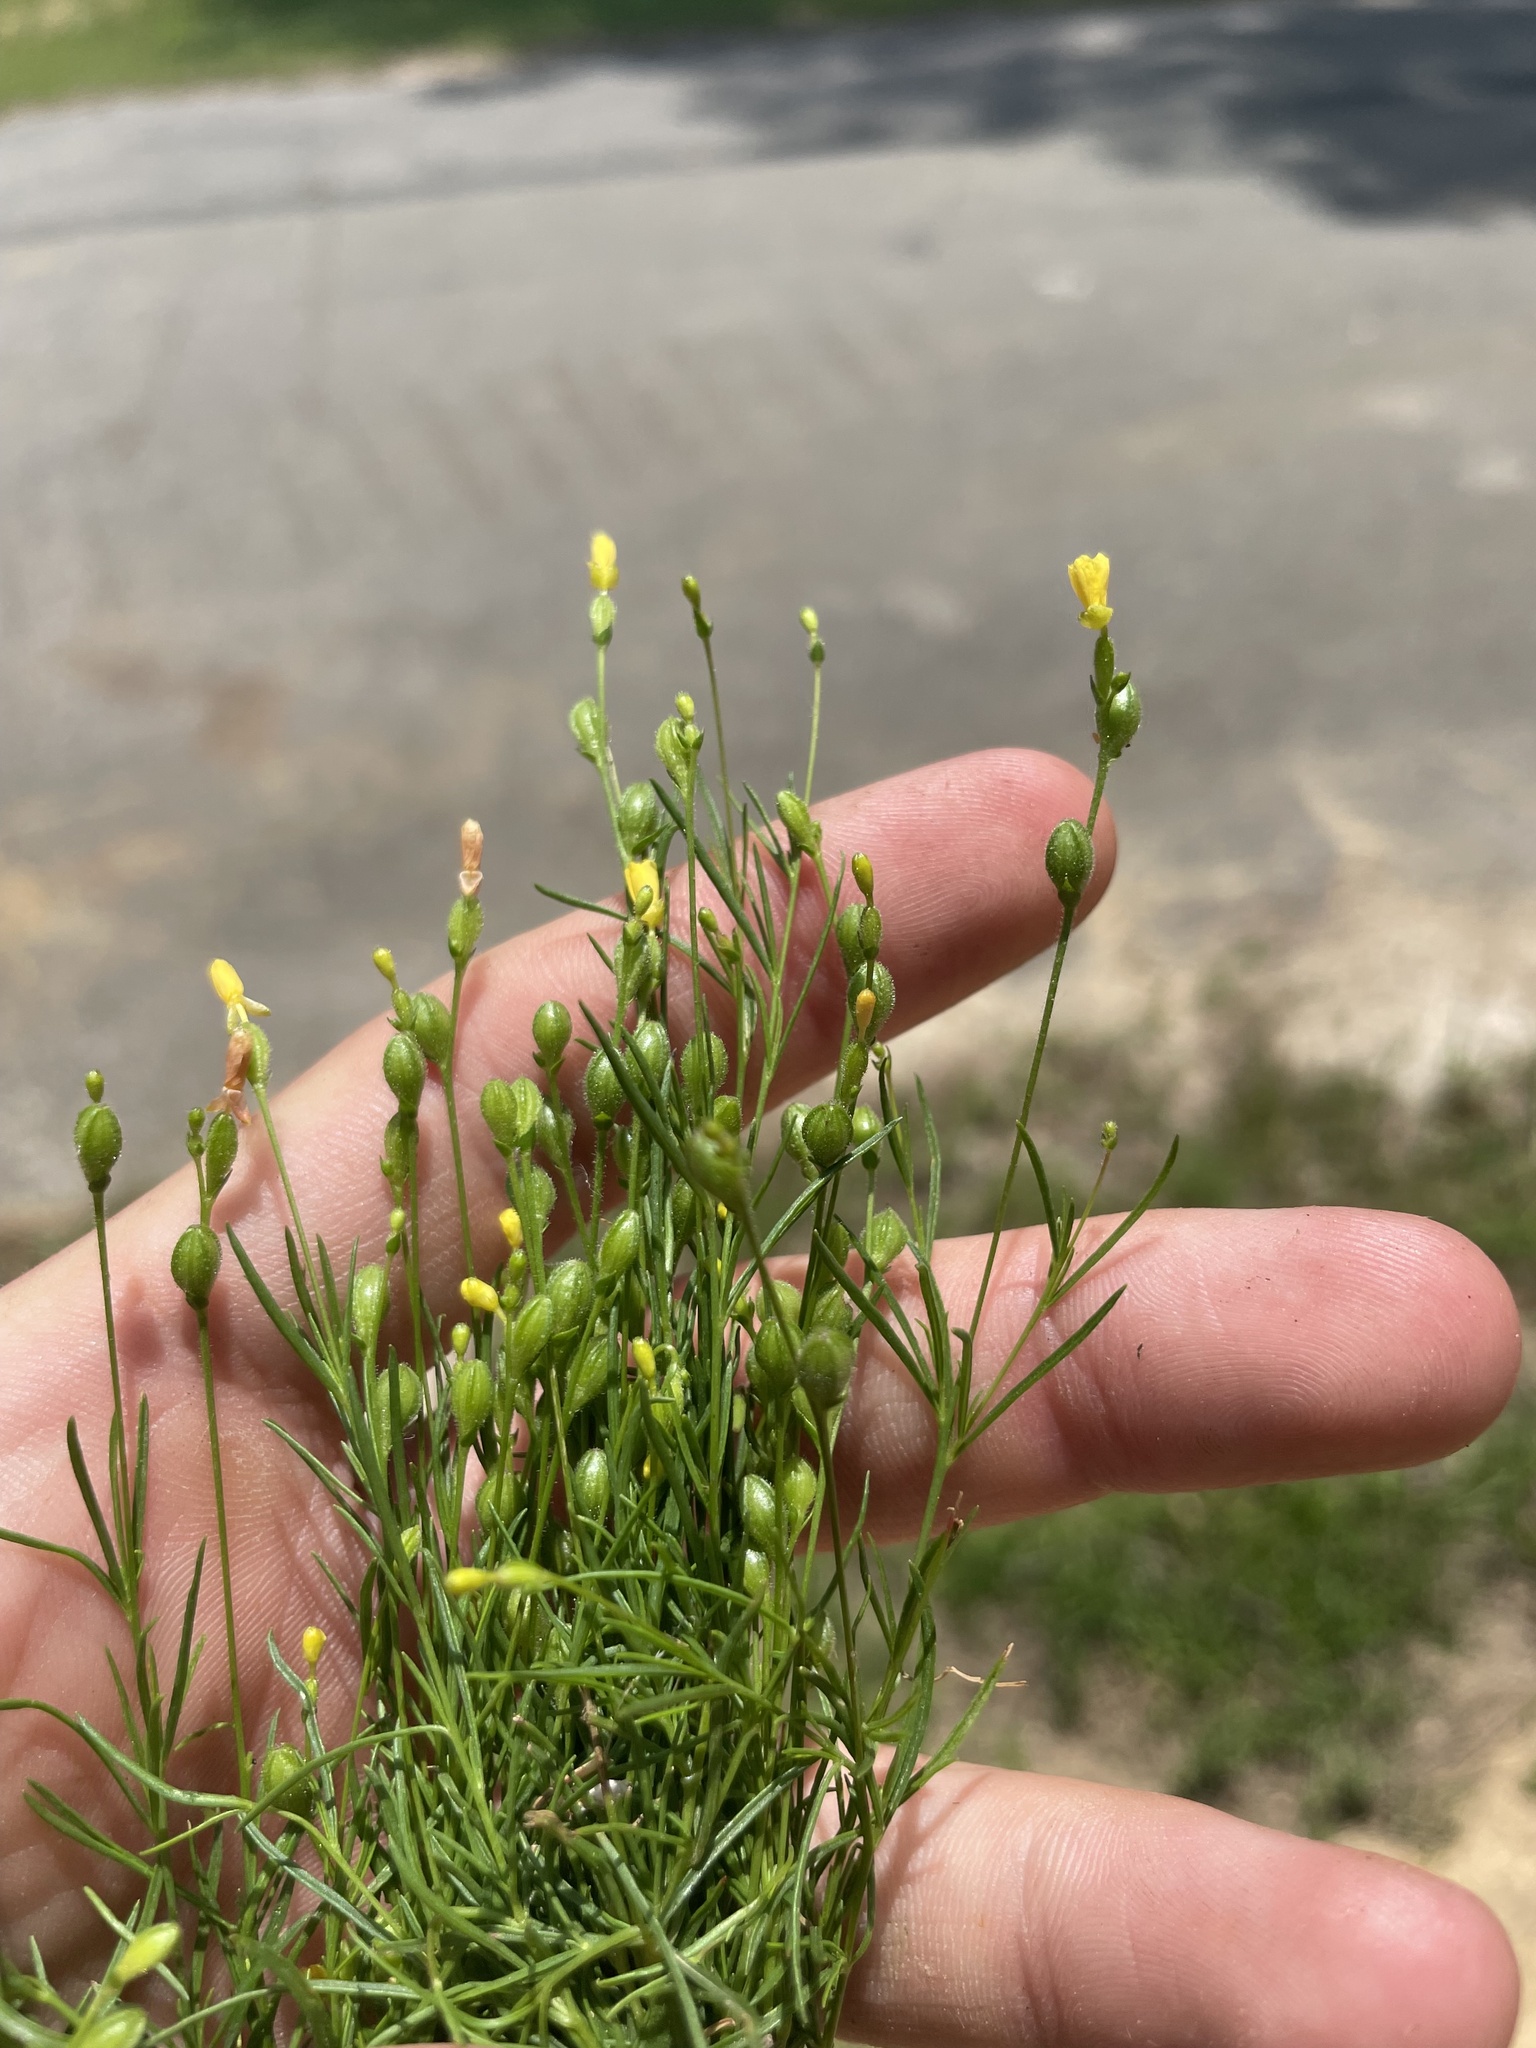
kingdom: Plantae
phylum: Tracheophyta
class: Magnoliopsida
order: Myrtales
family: Onagraceae
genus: Oenothera
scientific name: Oenothera linifolia
